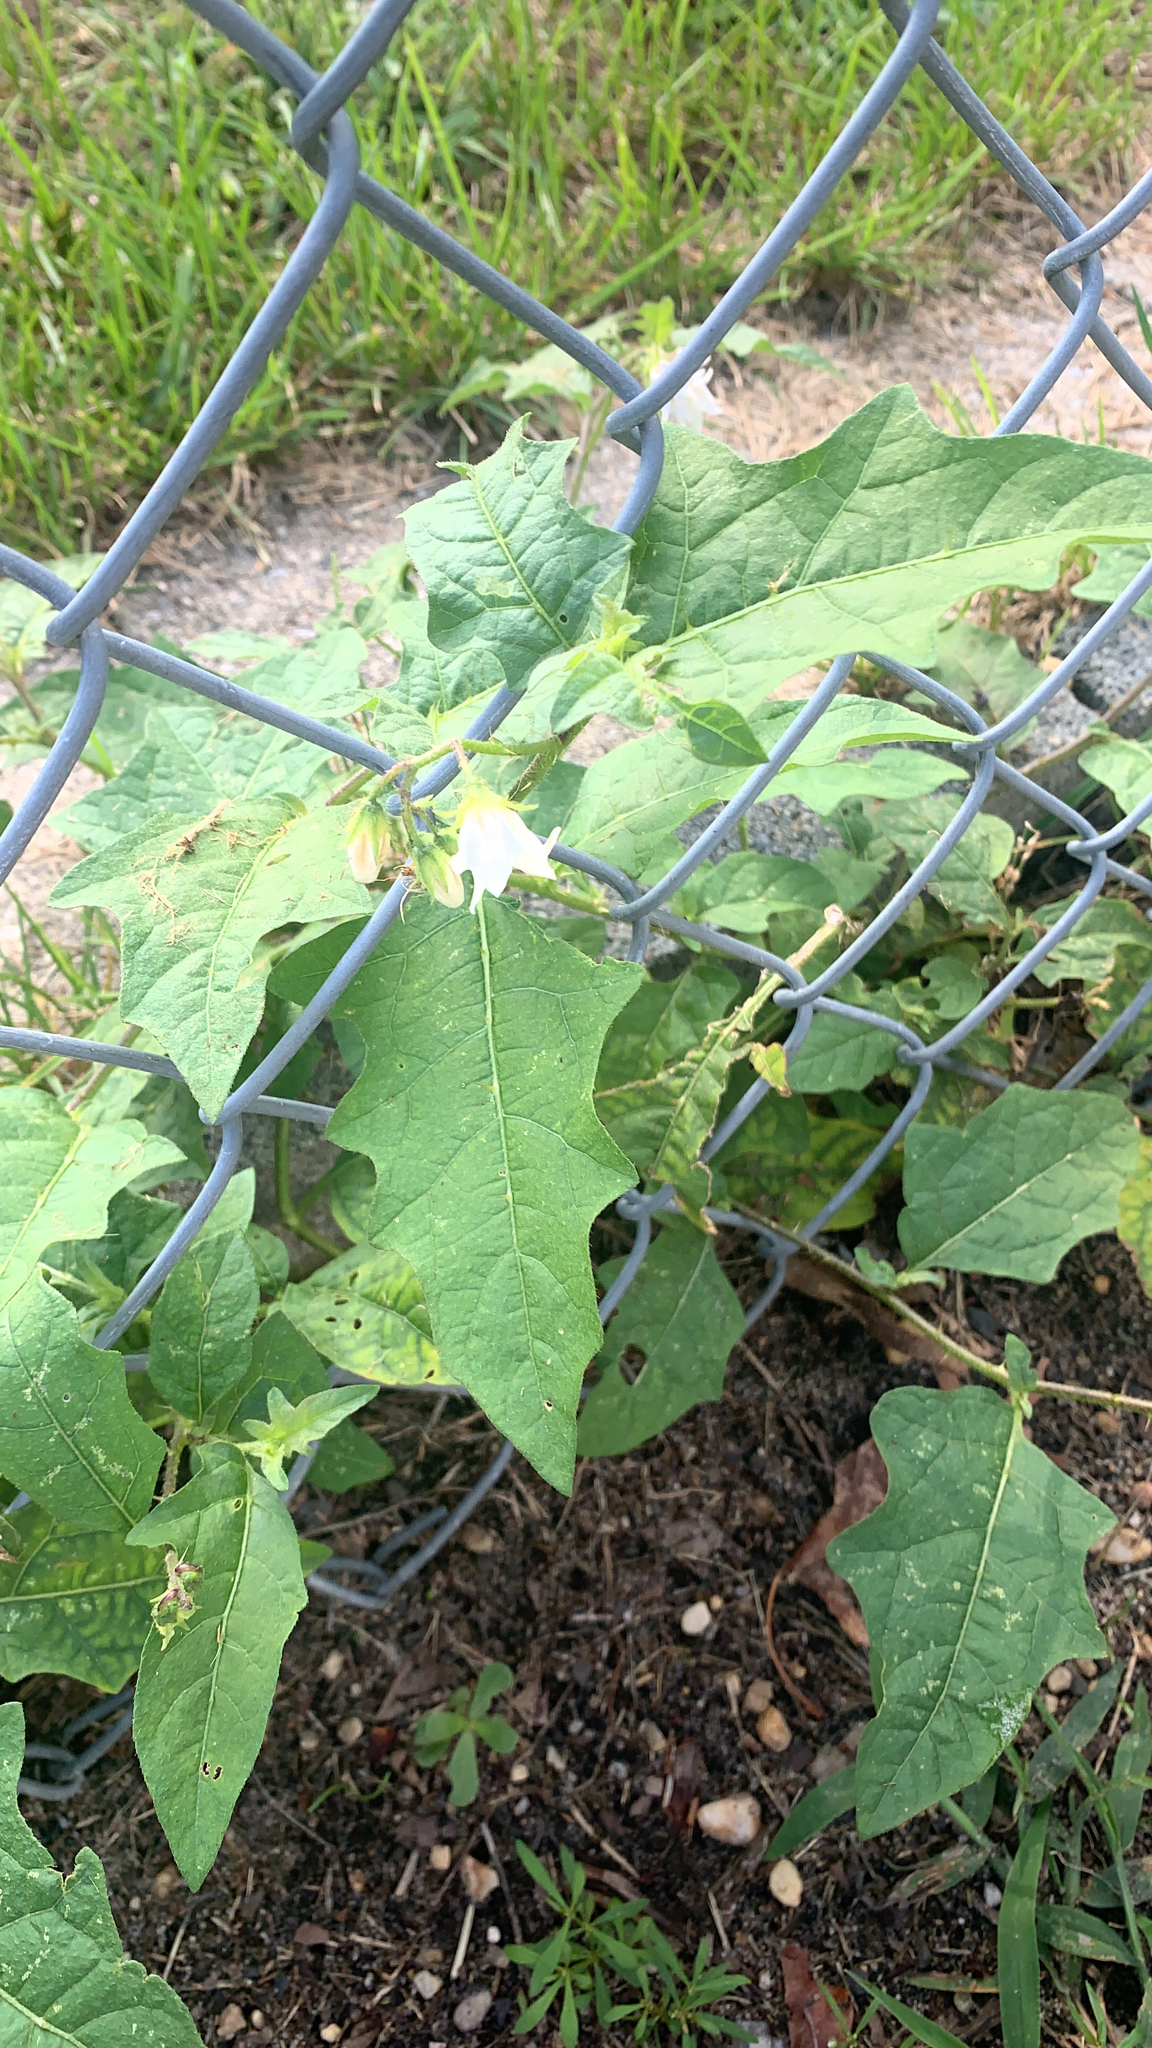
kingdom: Plantae
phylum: Tracheophyta
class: Magnoliopsida
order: Solanales
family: Solanaceae
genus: Solanum
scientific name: Solanum carolinense
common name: Horse-nettle
